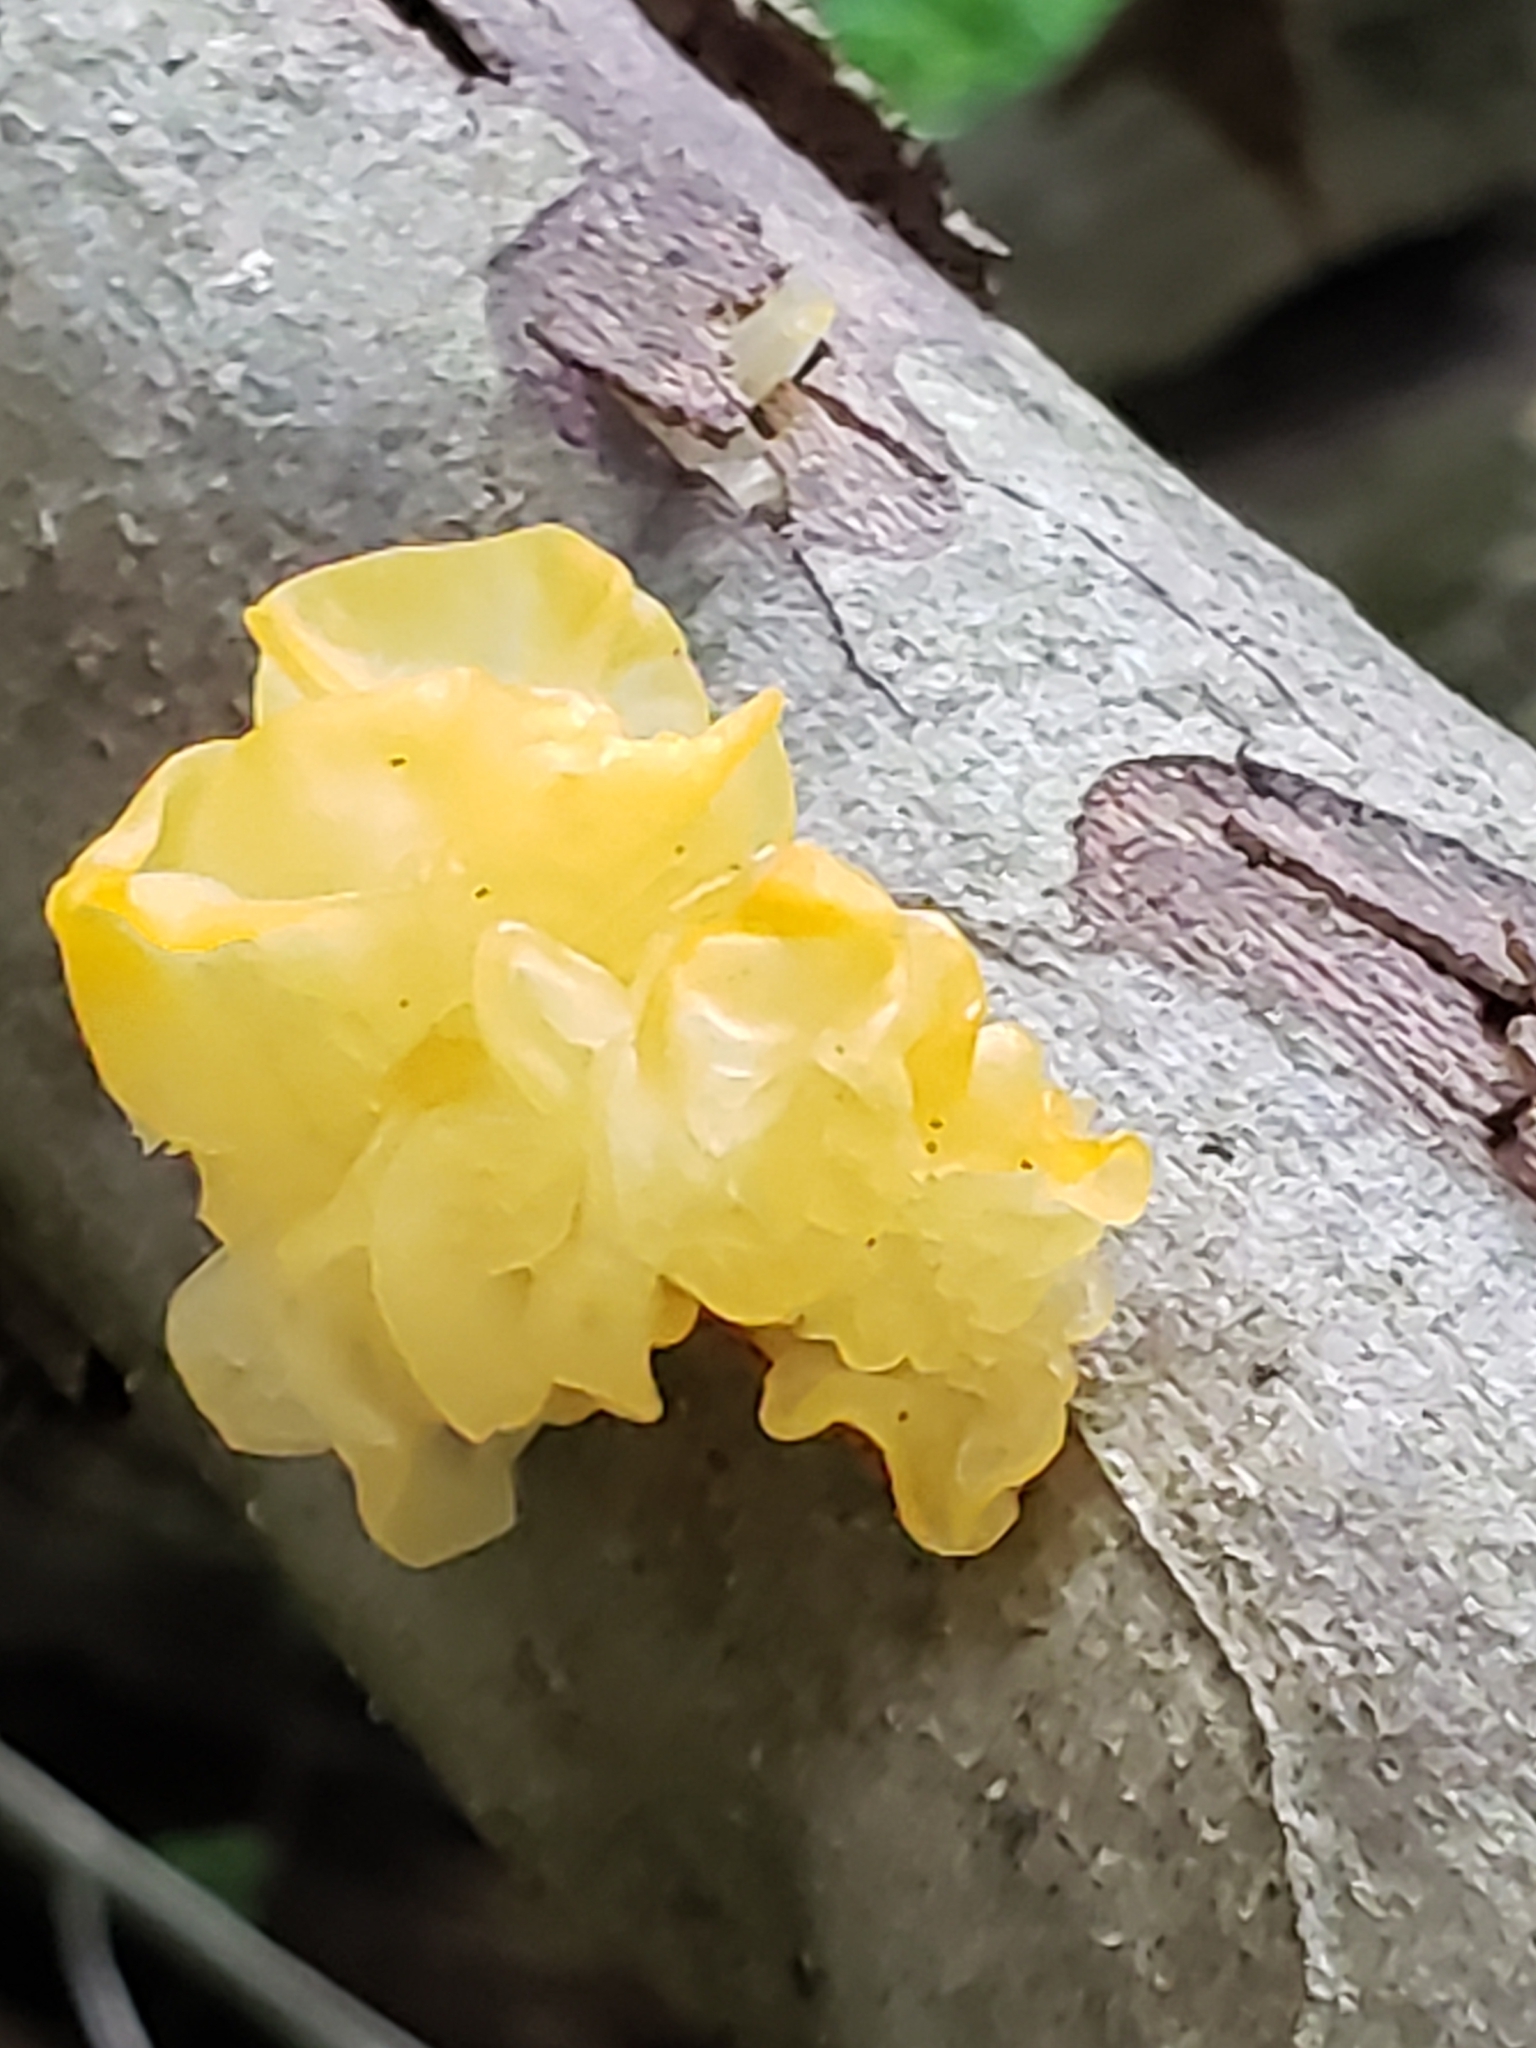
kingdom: Fungi
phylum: Basidiomycota
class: Tremellomycetes
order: Tremellales
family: Tremellaceae
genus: Tremella
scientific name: Tremella mesenterica
